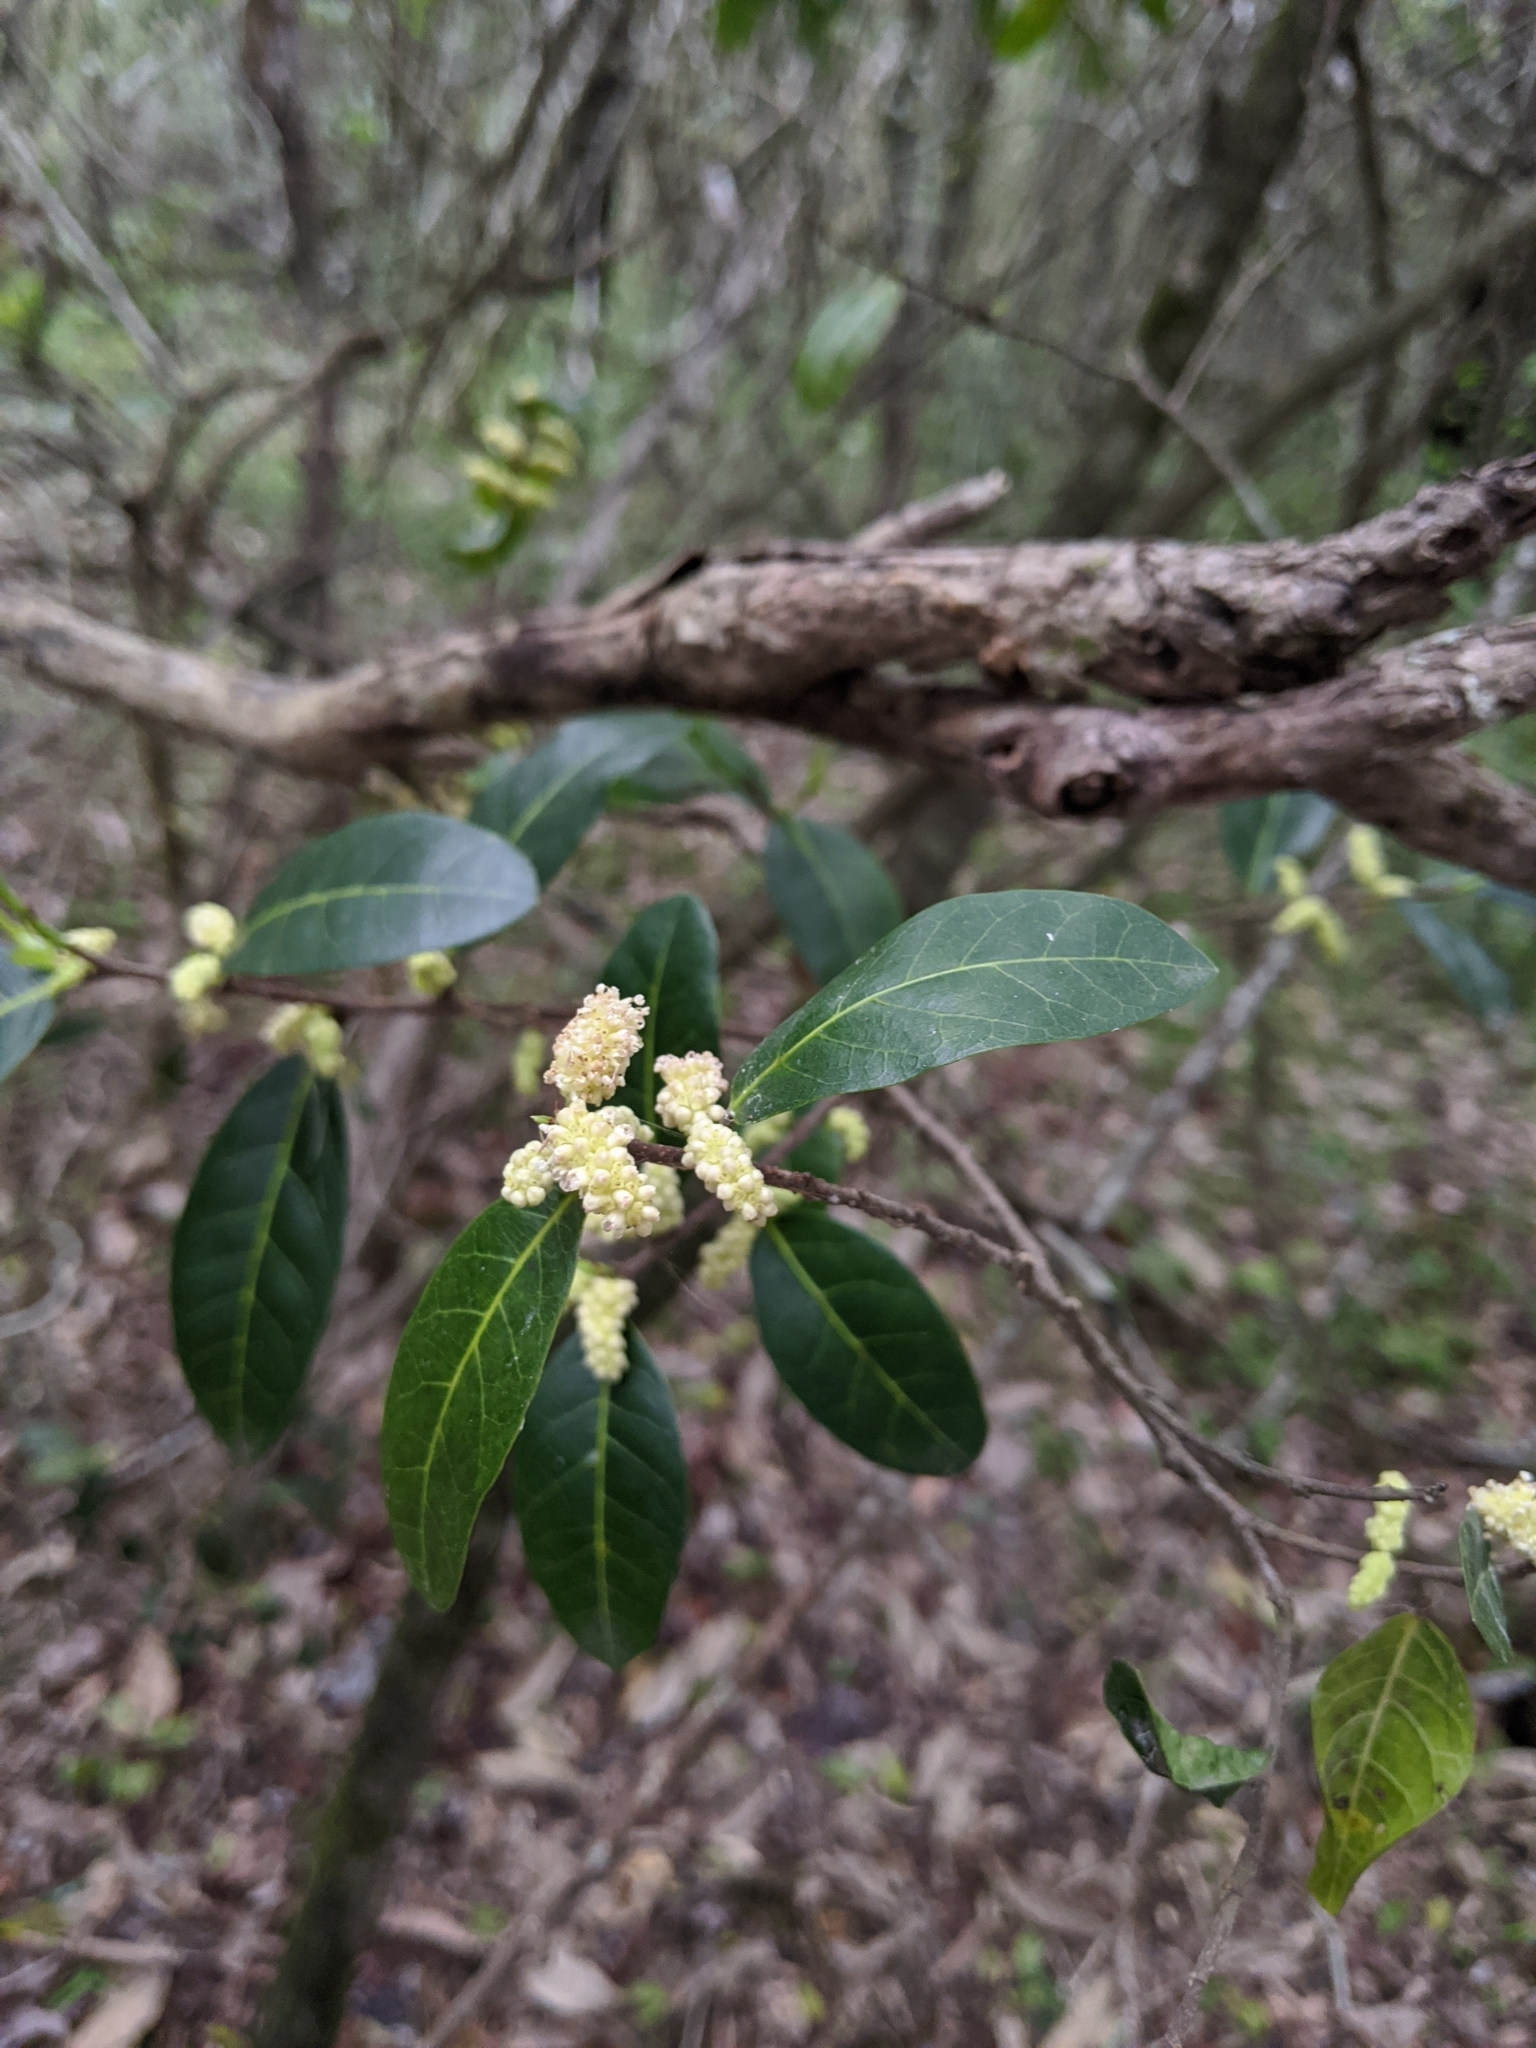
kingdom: Plantae
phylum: Tracheophyta
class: Magnoliopsida
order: Rosales
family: Moraceae
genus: Malaisia
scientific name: Malaisia scandens
